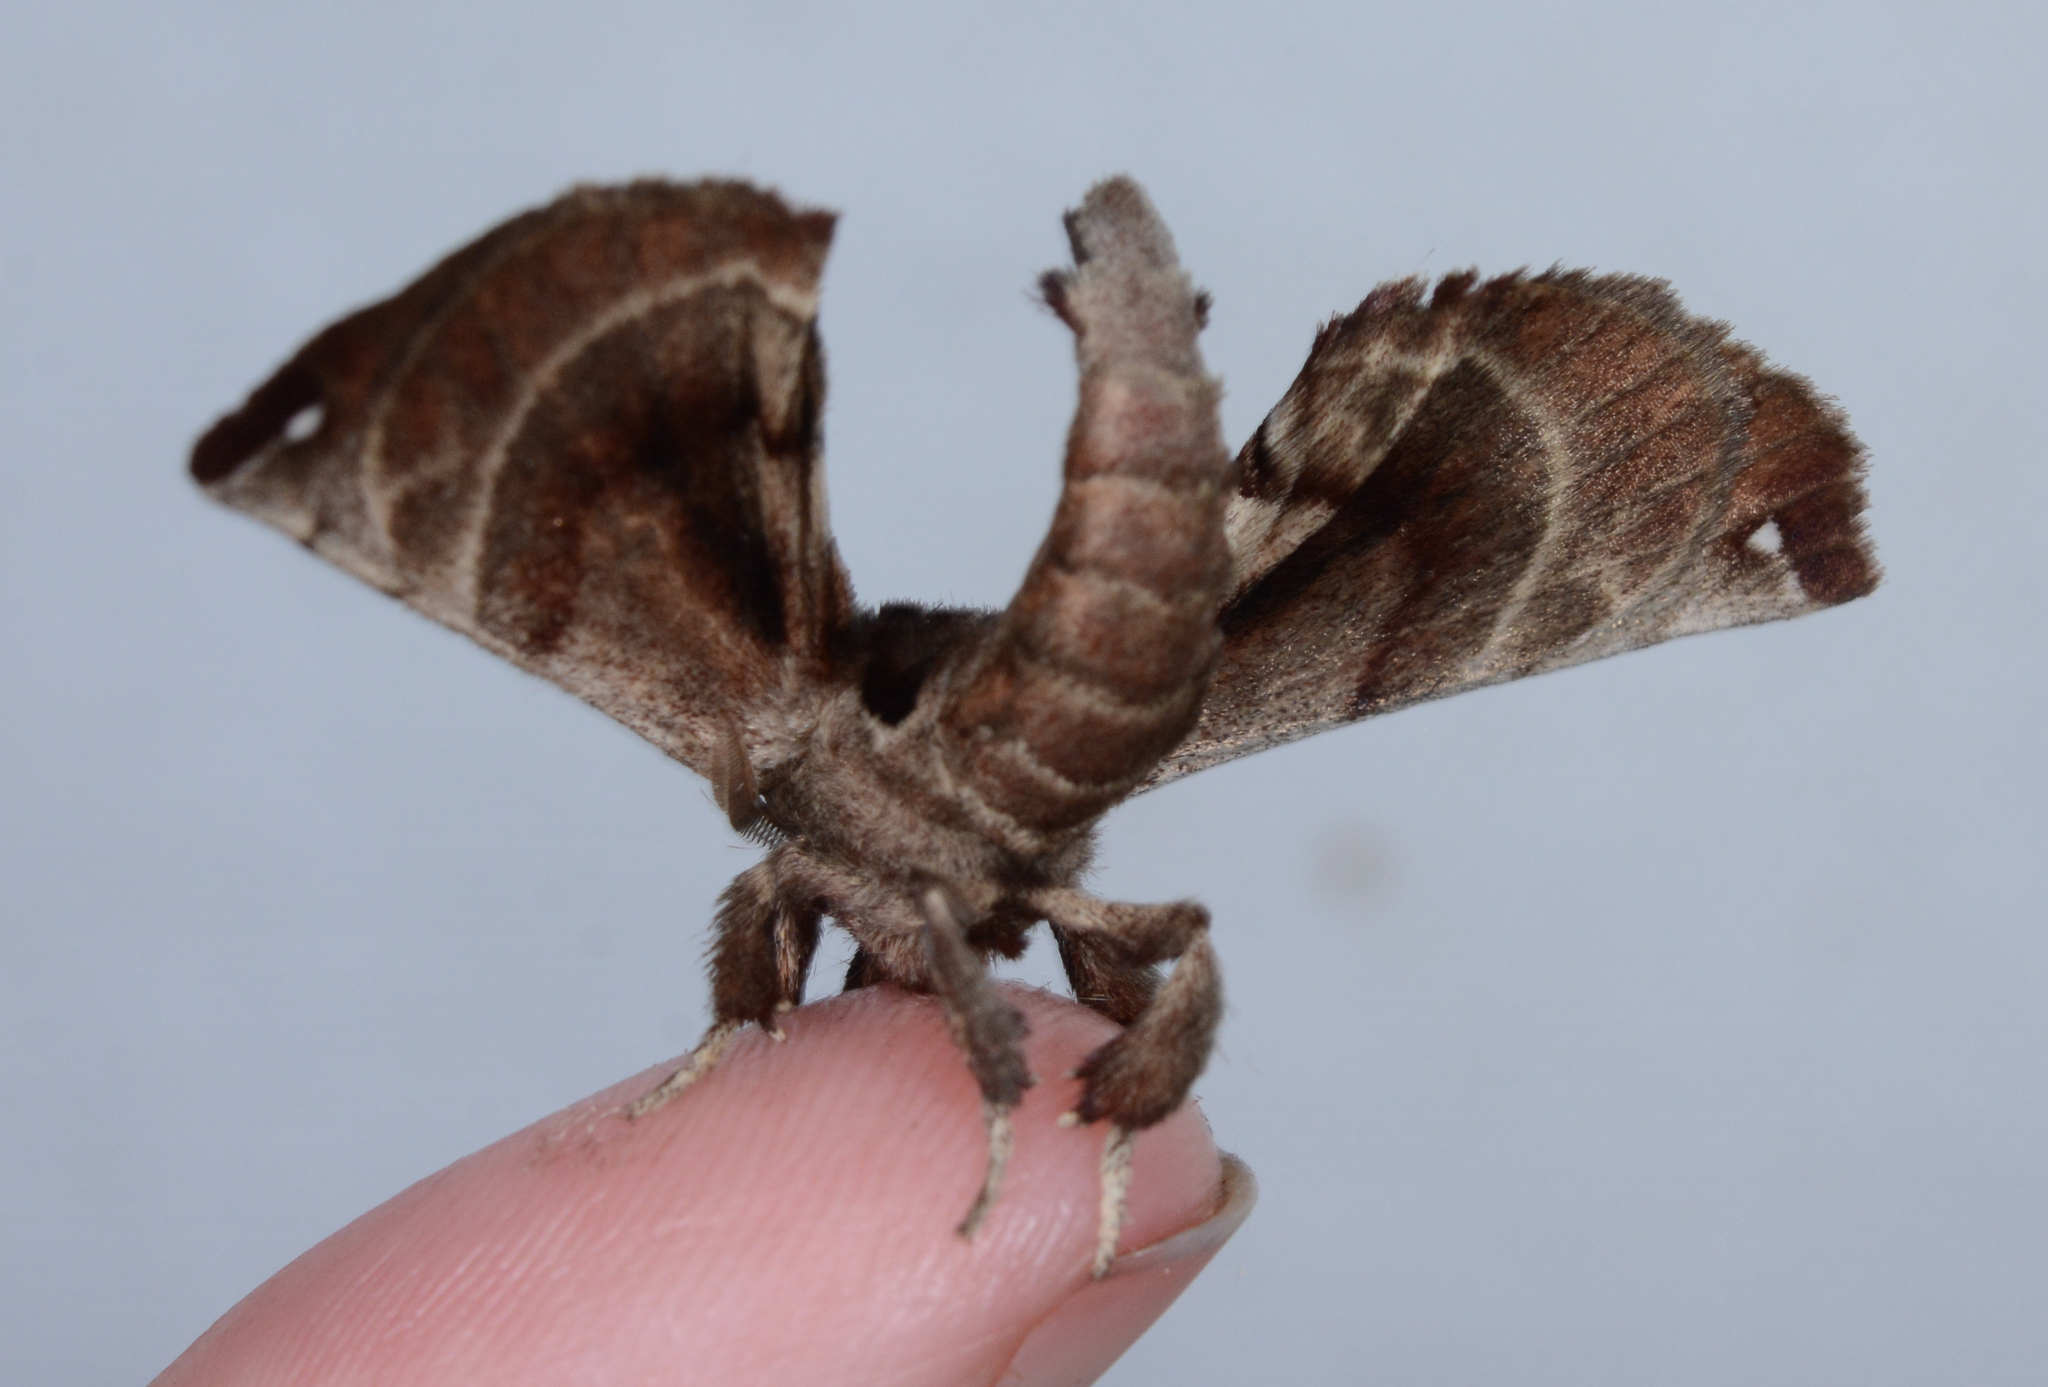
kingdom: Animalia
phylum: Arthropoda
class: Insecta
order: Lepidoptera
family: Apatelodidae
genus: Hygrochroa
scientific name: Hygrochroa Apatelodes torrefacta
